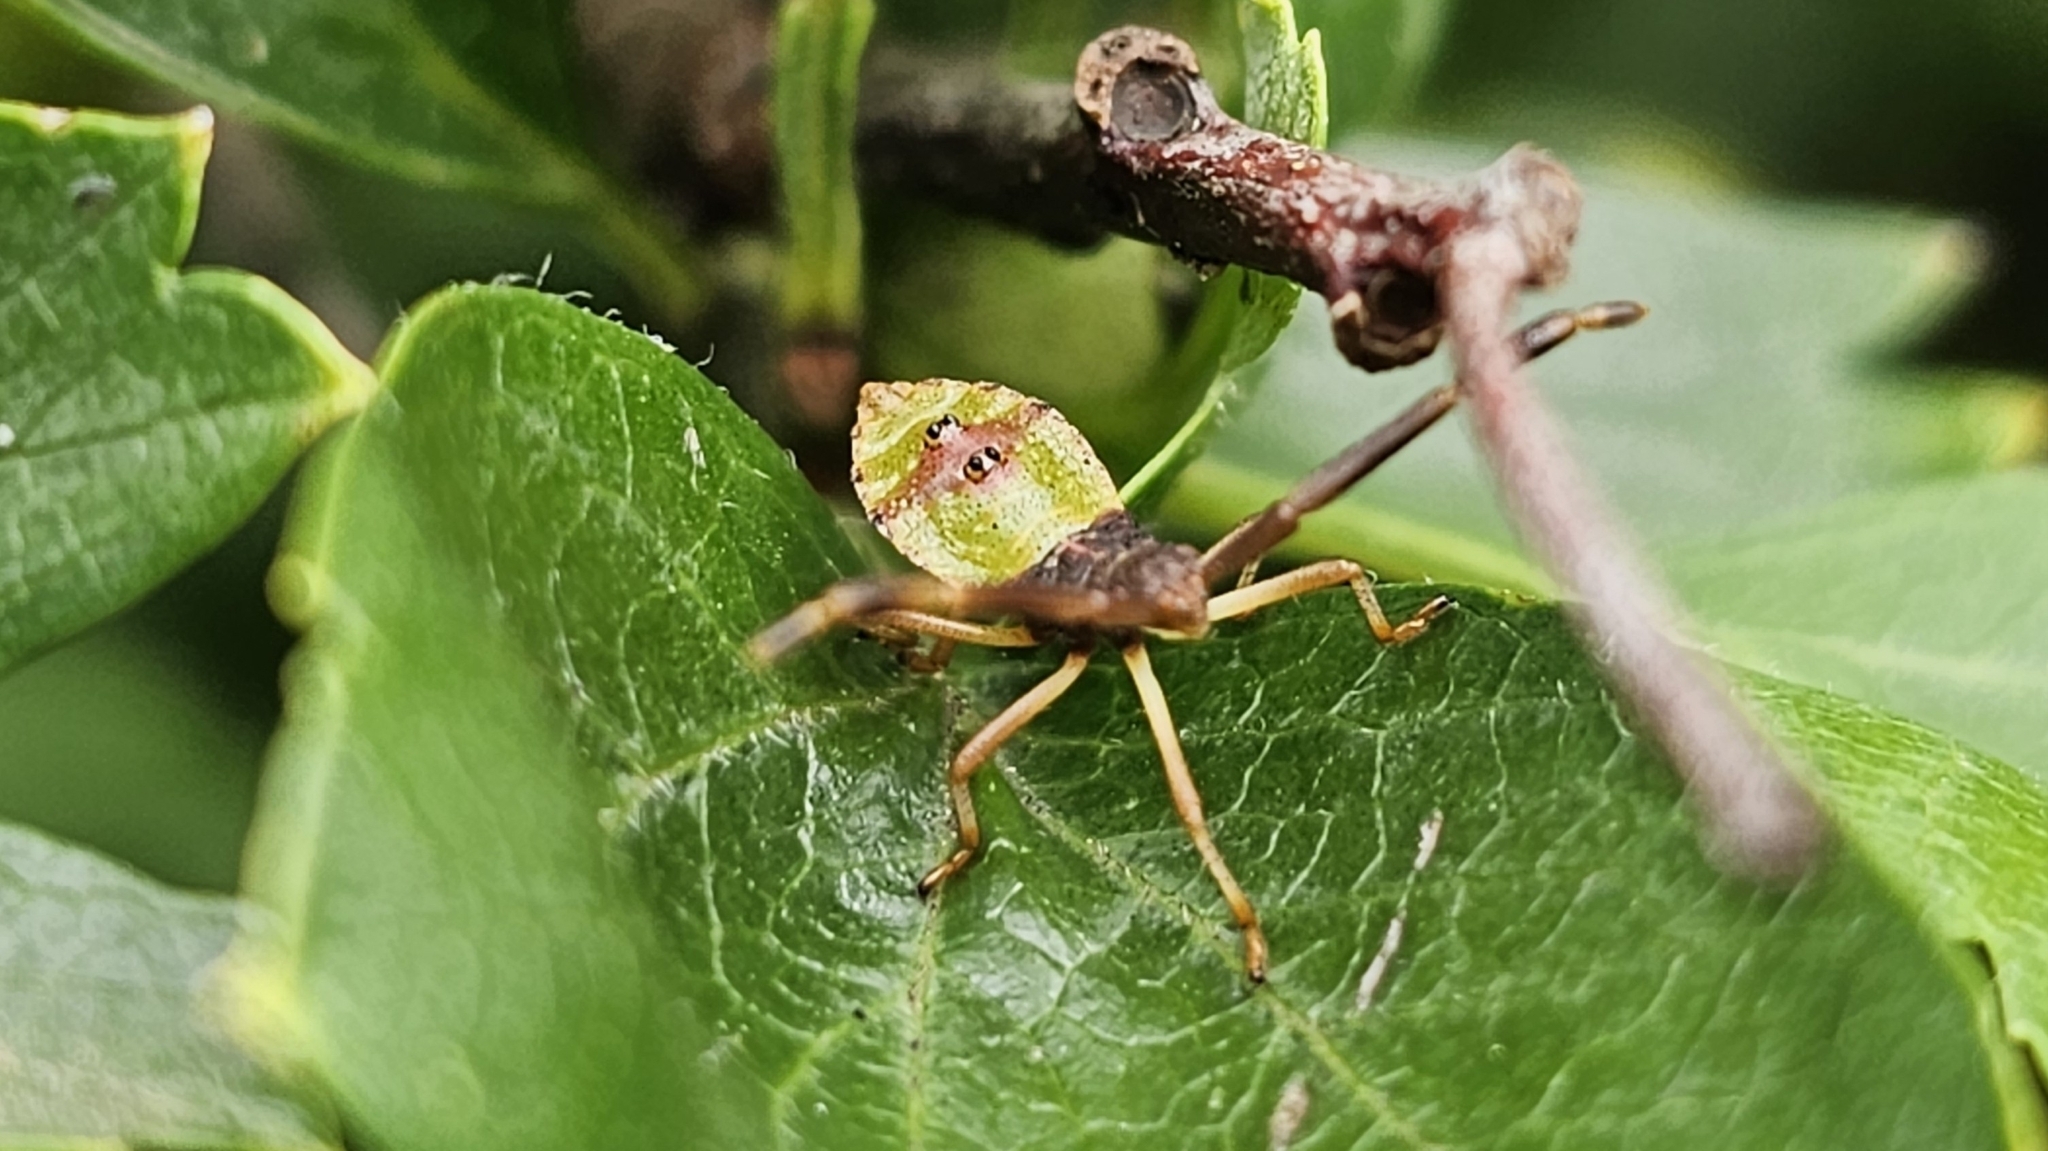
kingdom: Animalia
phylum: Arthropoda
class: Insecta
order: Hemiptera
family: Coreidae
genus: Gonocerus
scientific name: Gonocerus acuteangulatus
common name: Box bug
